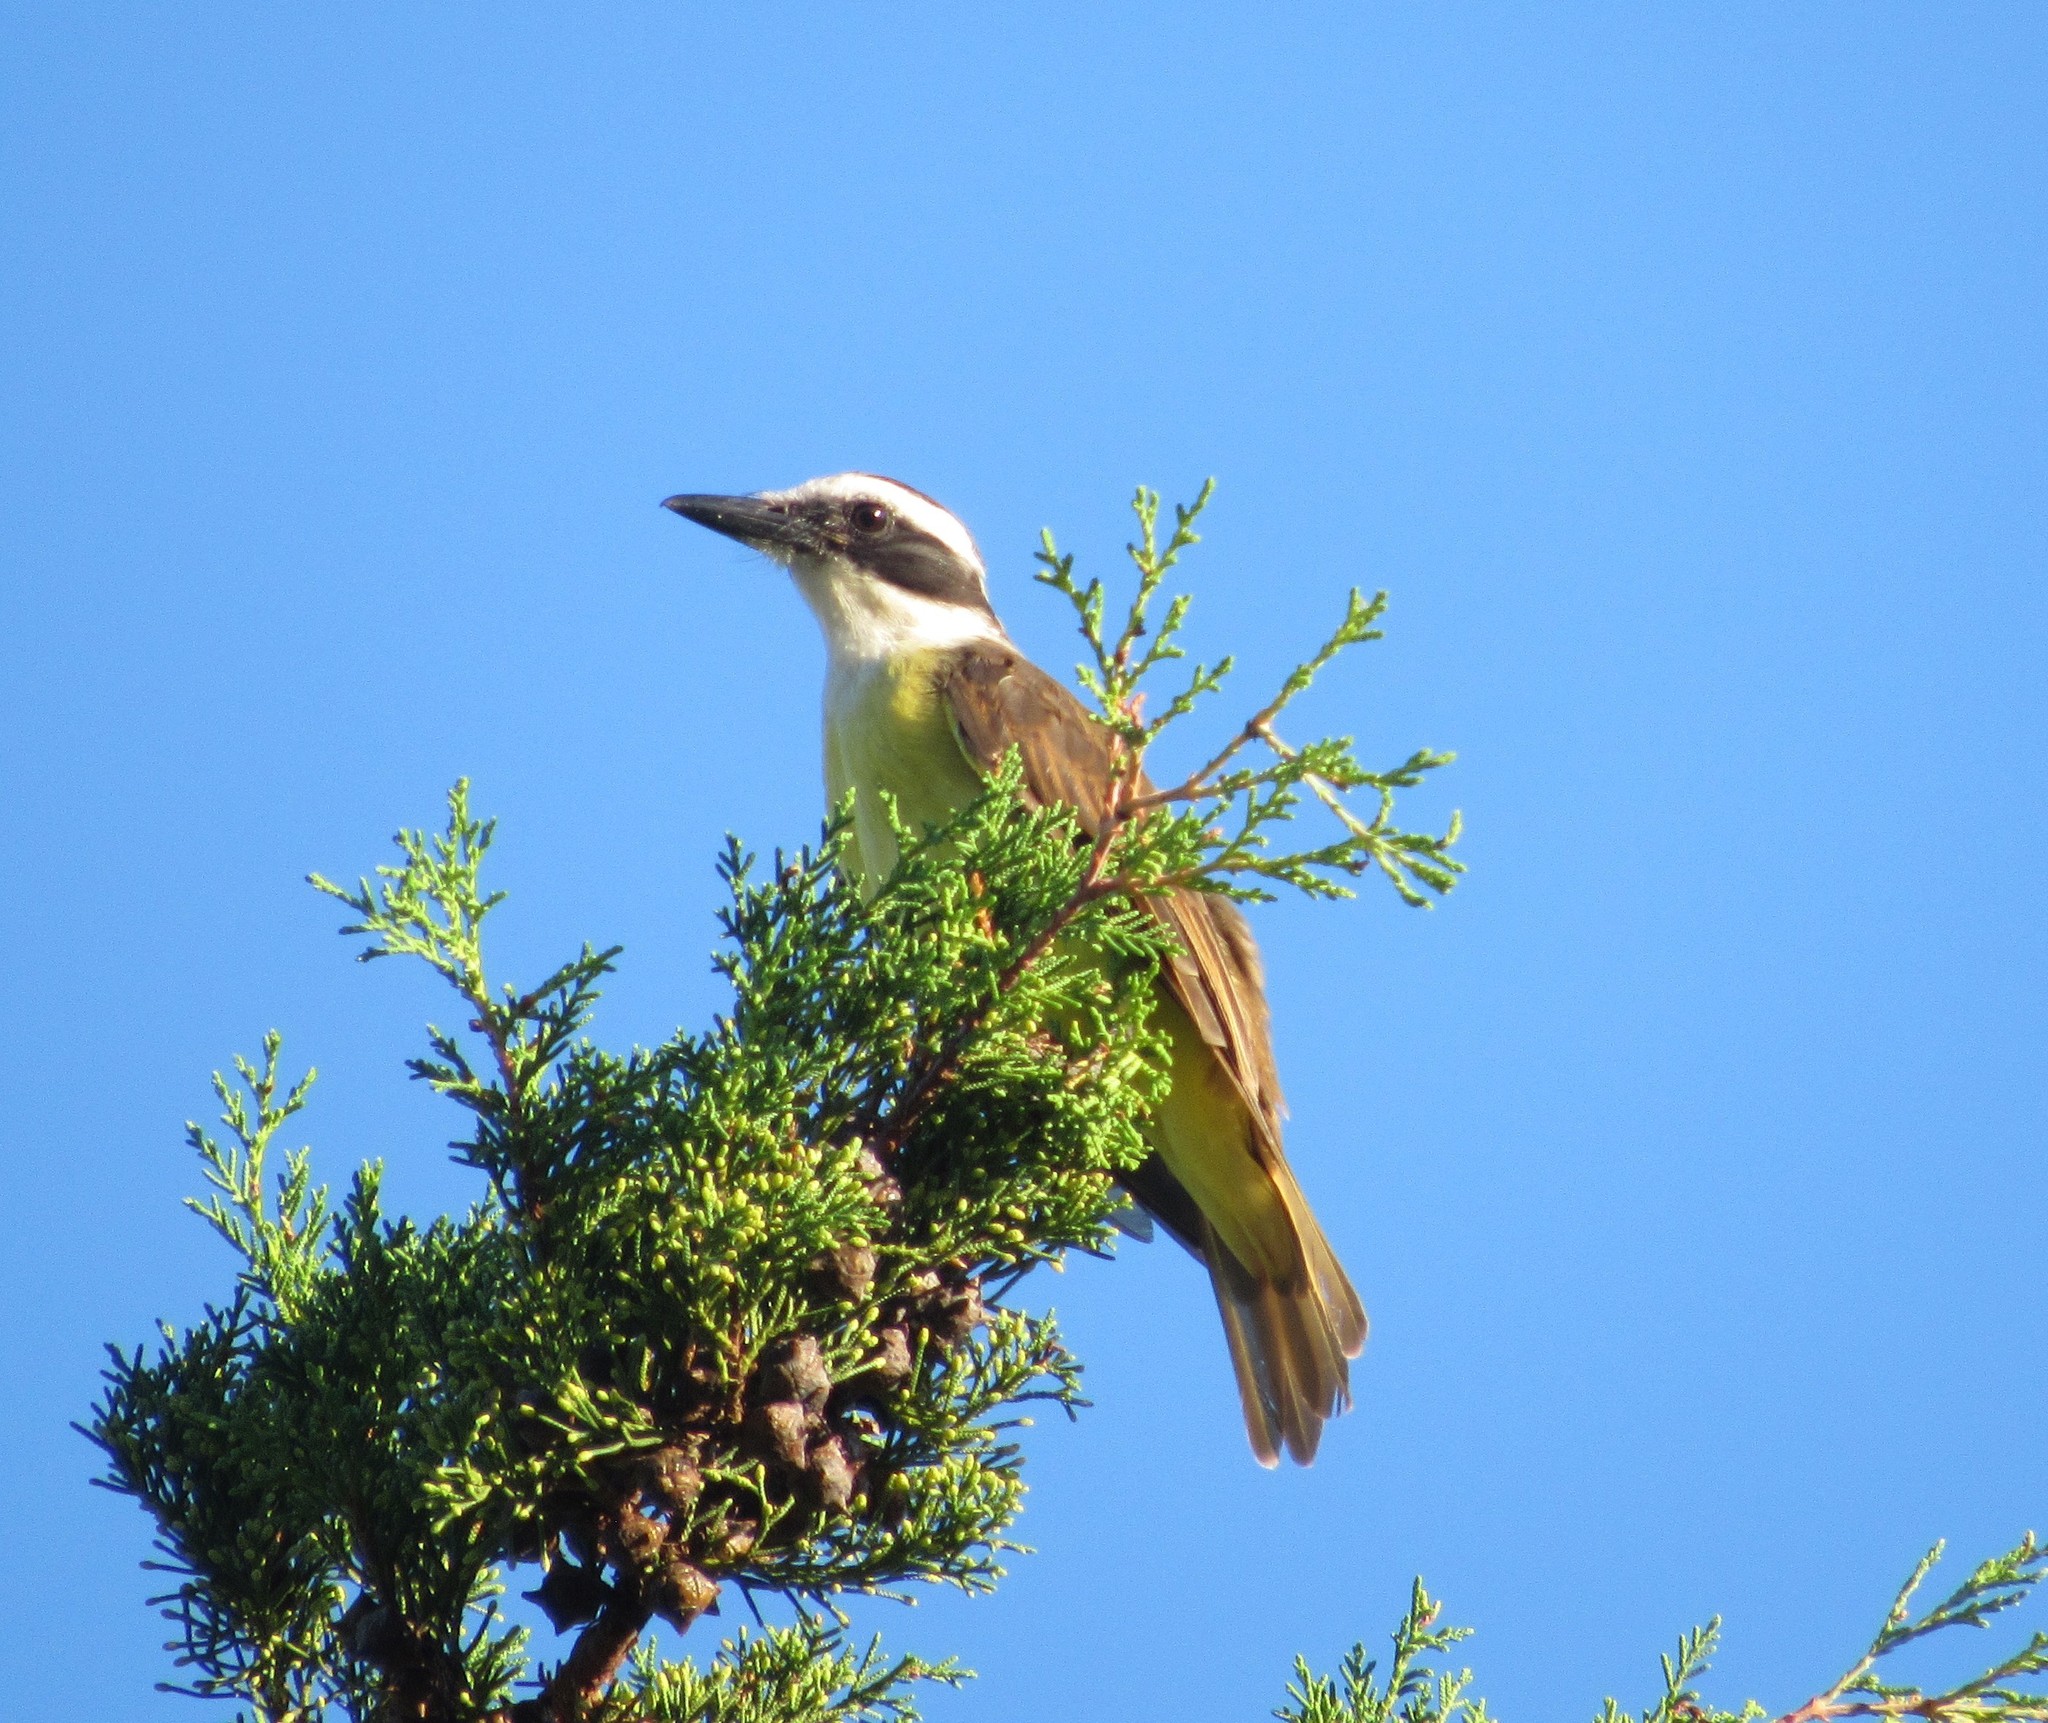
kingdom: Animalia
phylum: Chordata
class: Aves
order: Passeriformes
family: Tyrannidae
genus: Pitangus
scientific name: Pitangus sulphuratus
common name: Great kiskadee
